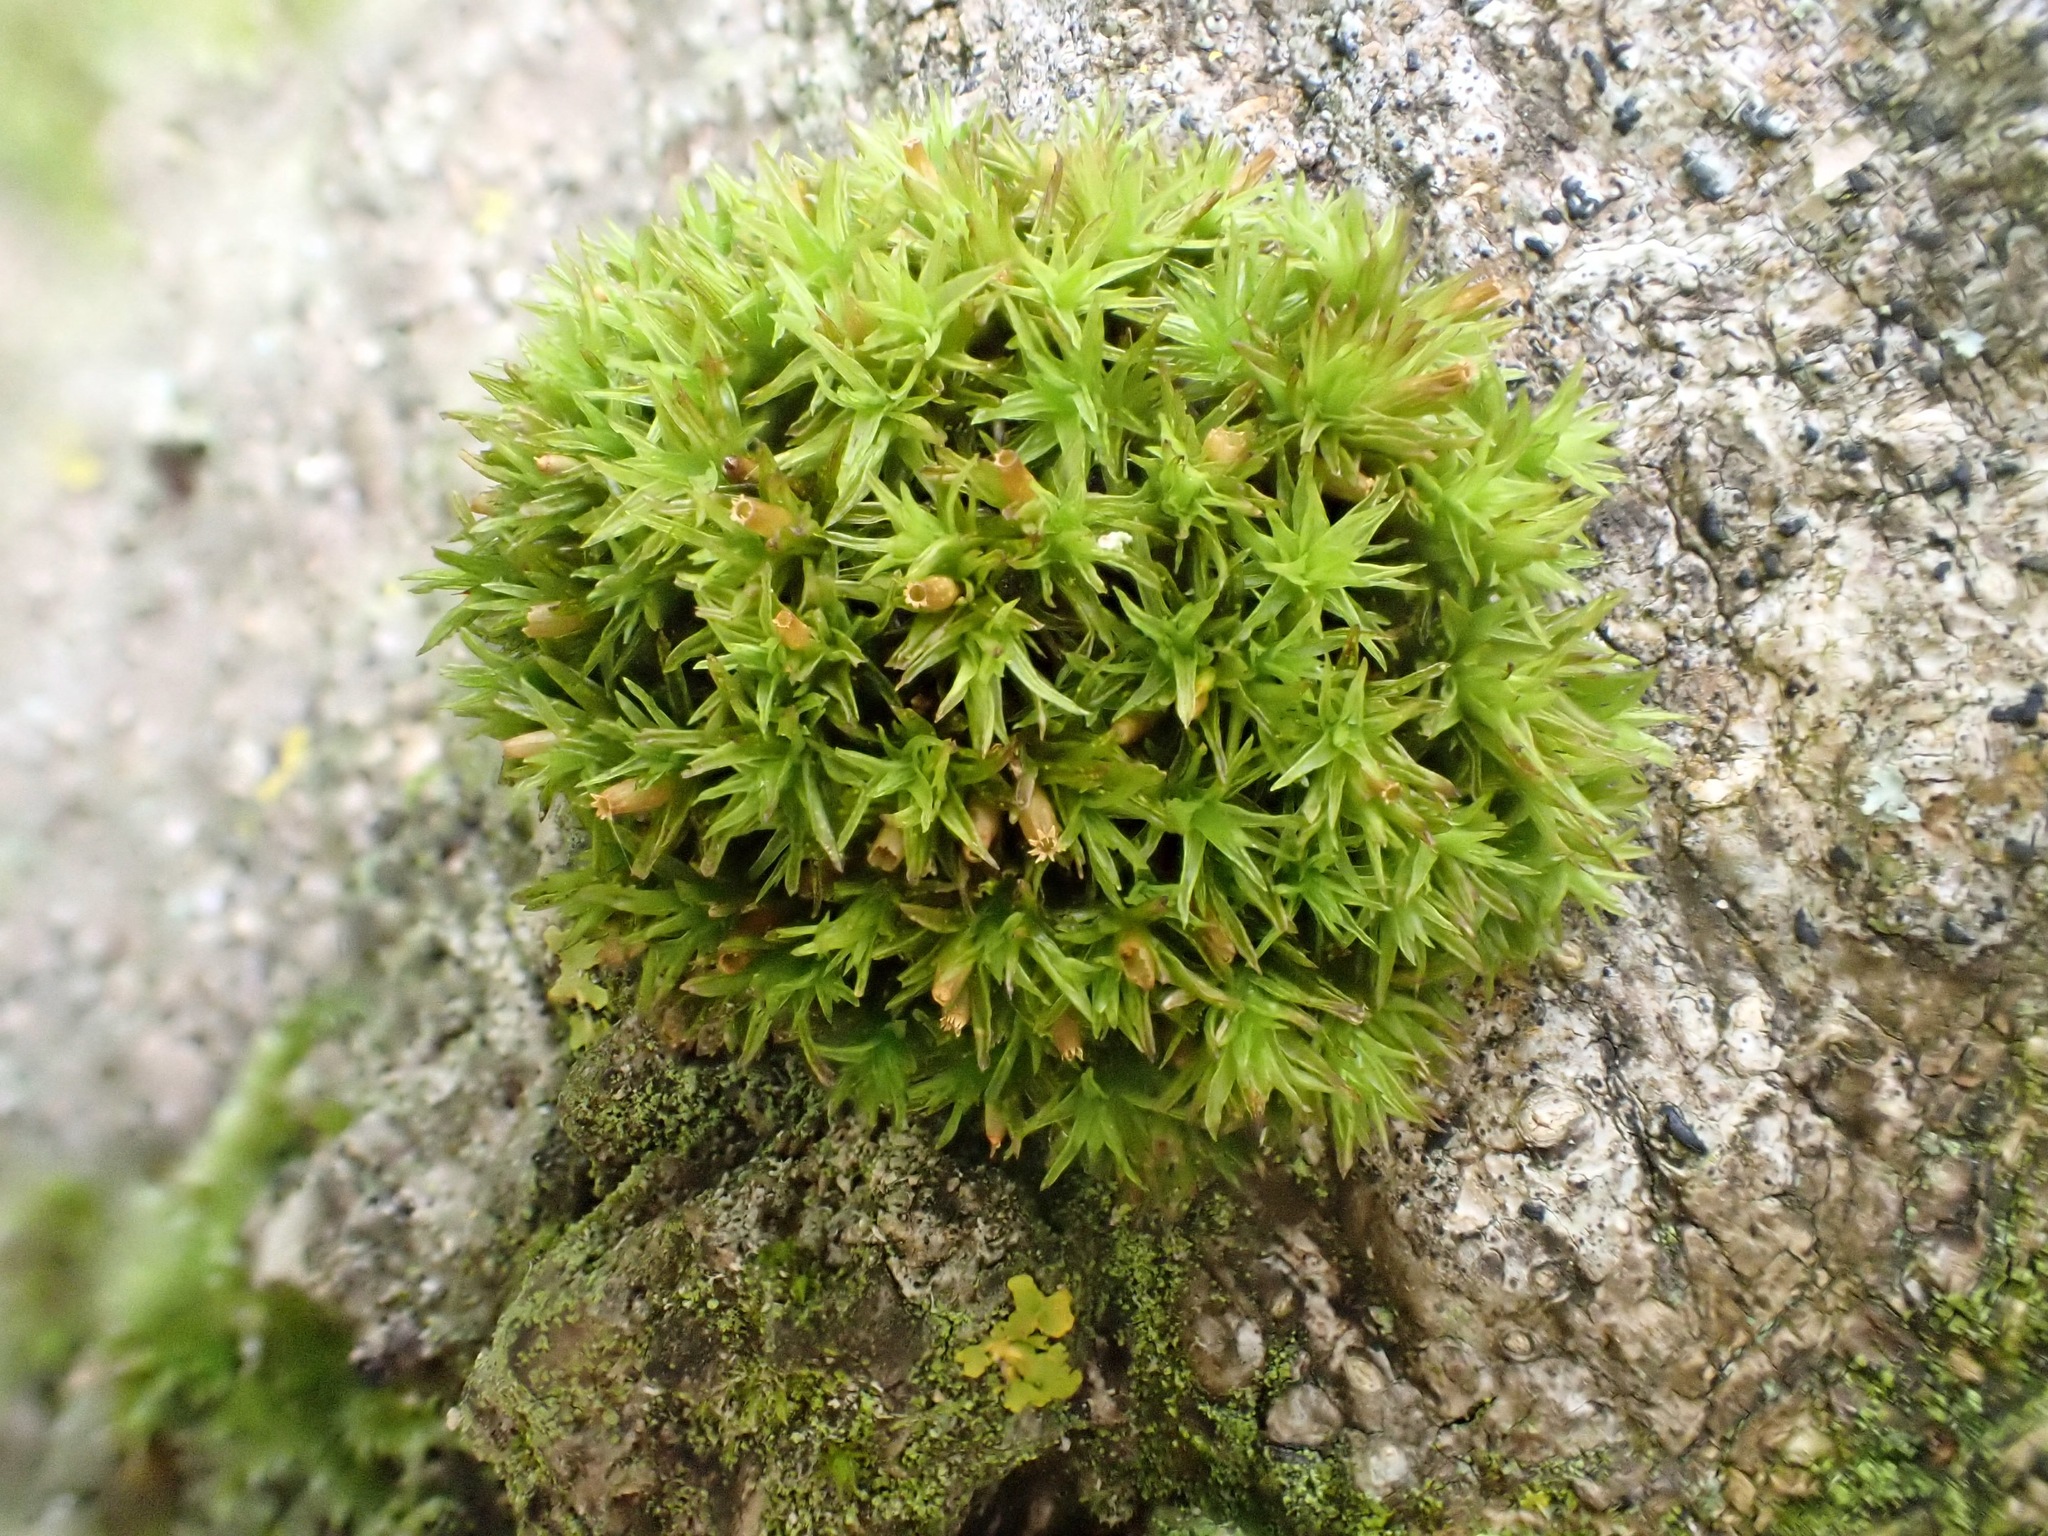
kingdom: Plantae
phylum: Bryophyta
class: Bryopsida
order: Orthotrichales
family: Orthotrichaceae
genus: Lewinskya
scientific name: Lewinskya affinis
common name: Wood bristle-moss
